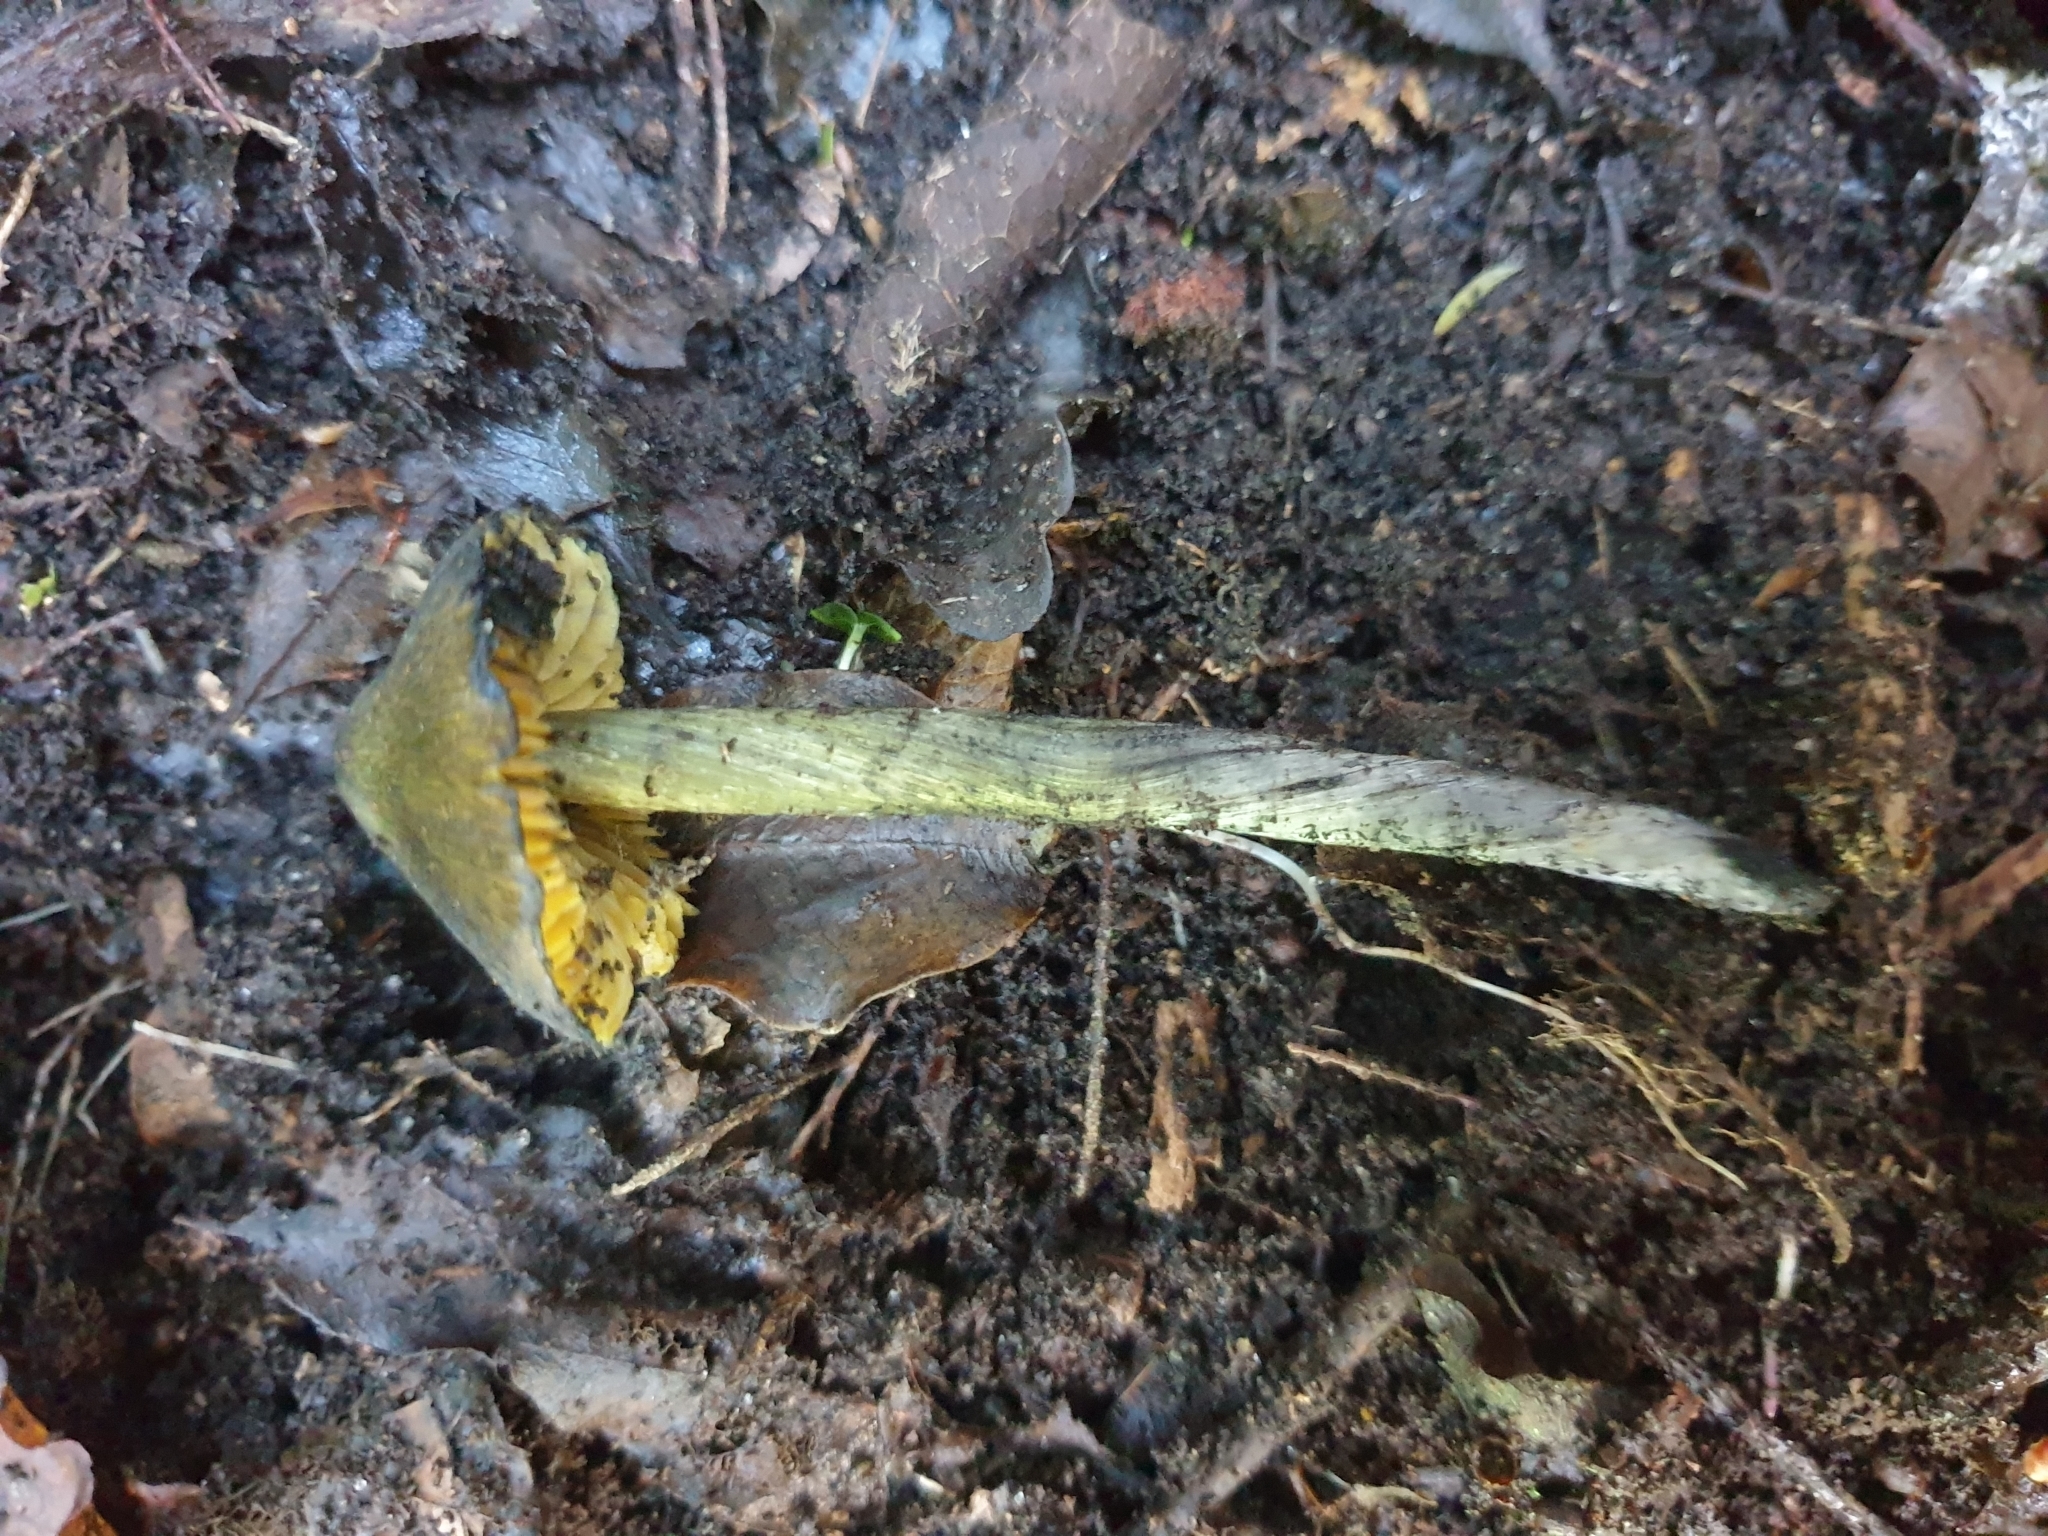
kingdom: Fungi
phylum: Basidiomycota
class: Agaricomycetes
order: Agaricales
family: Hygrophoraceae
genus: Hygrocybe
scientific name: Hygrocybe astatogala
